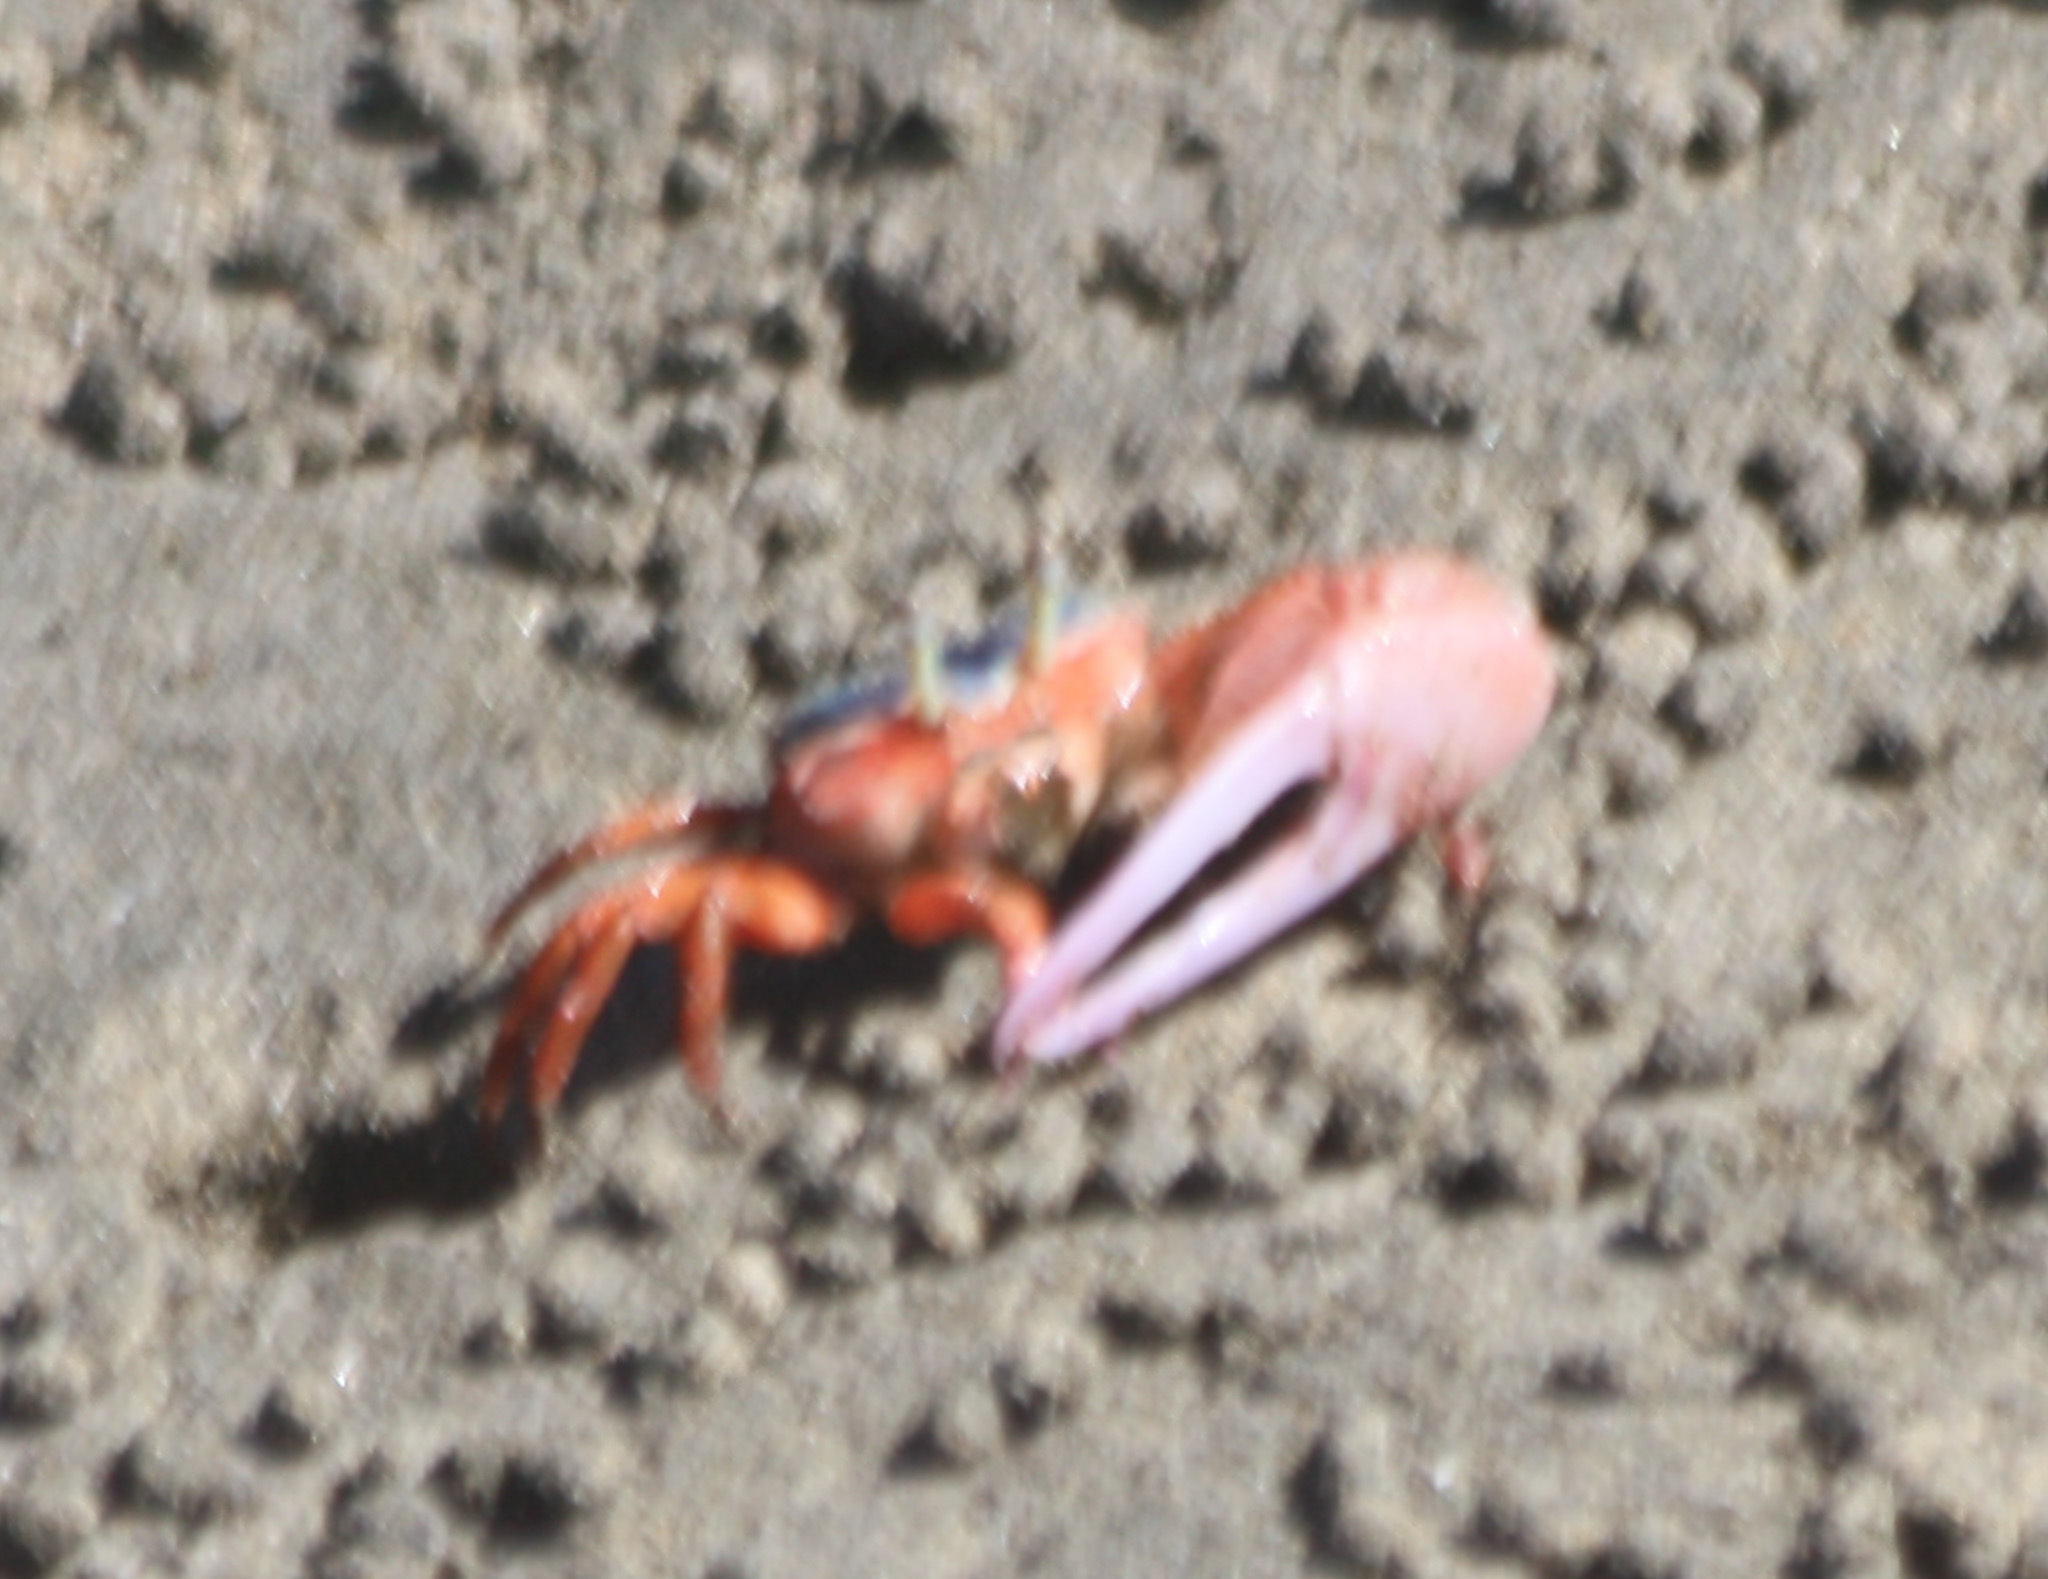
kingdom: Animalia
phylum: Arthropoda
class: Malacostraca
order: Decapoda
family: Ocypodidae
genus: Leptuca
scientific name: Leptuca stenodactylus
